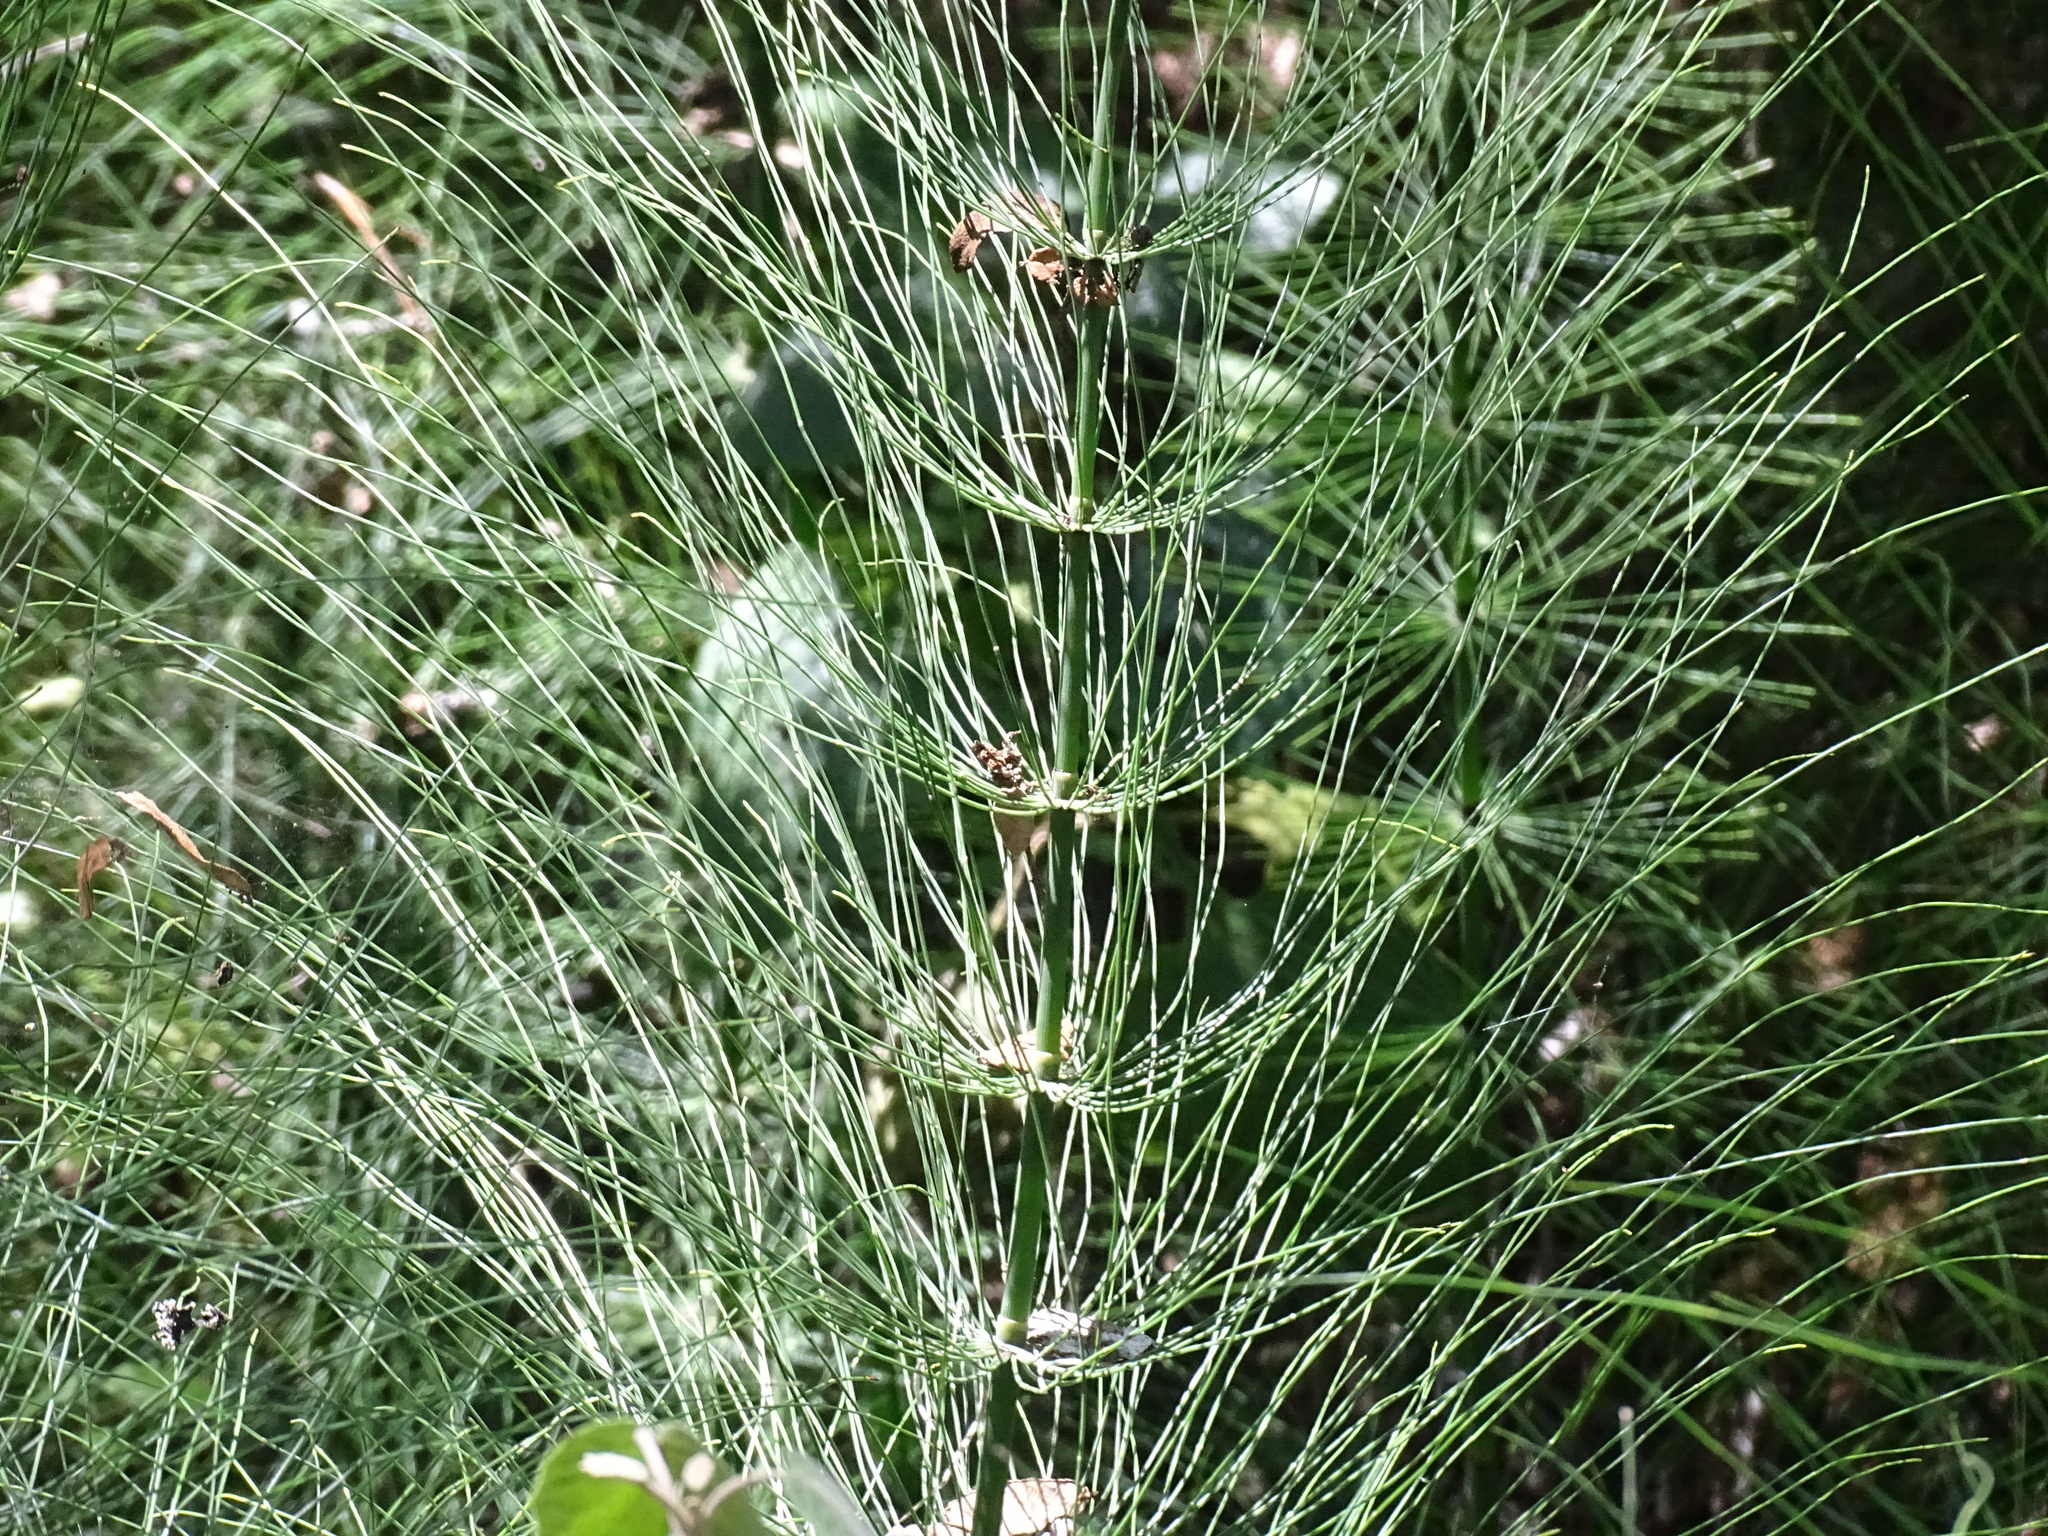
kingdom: Plantae
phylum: Tracheophyta
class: Polypodiopsida
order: Equisetales
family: Equisetaceae
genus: Equisetum
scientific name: Equisetum myriochaetum
